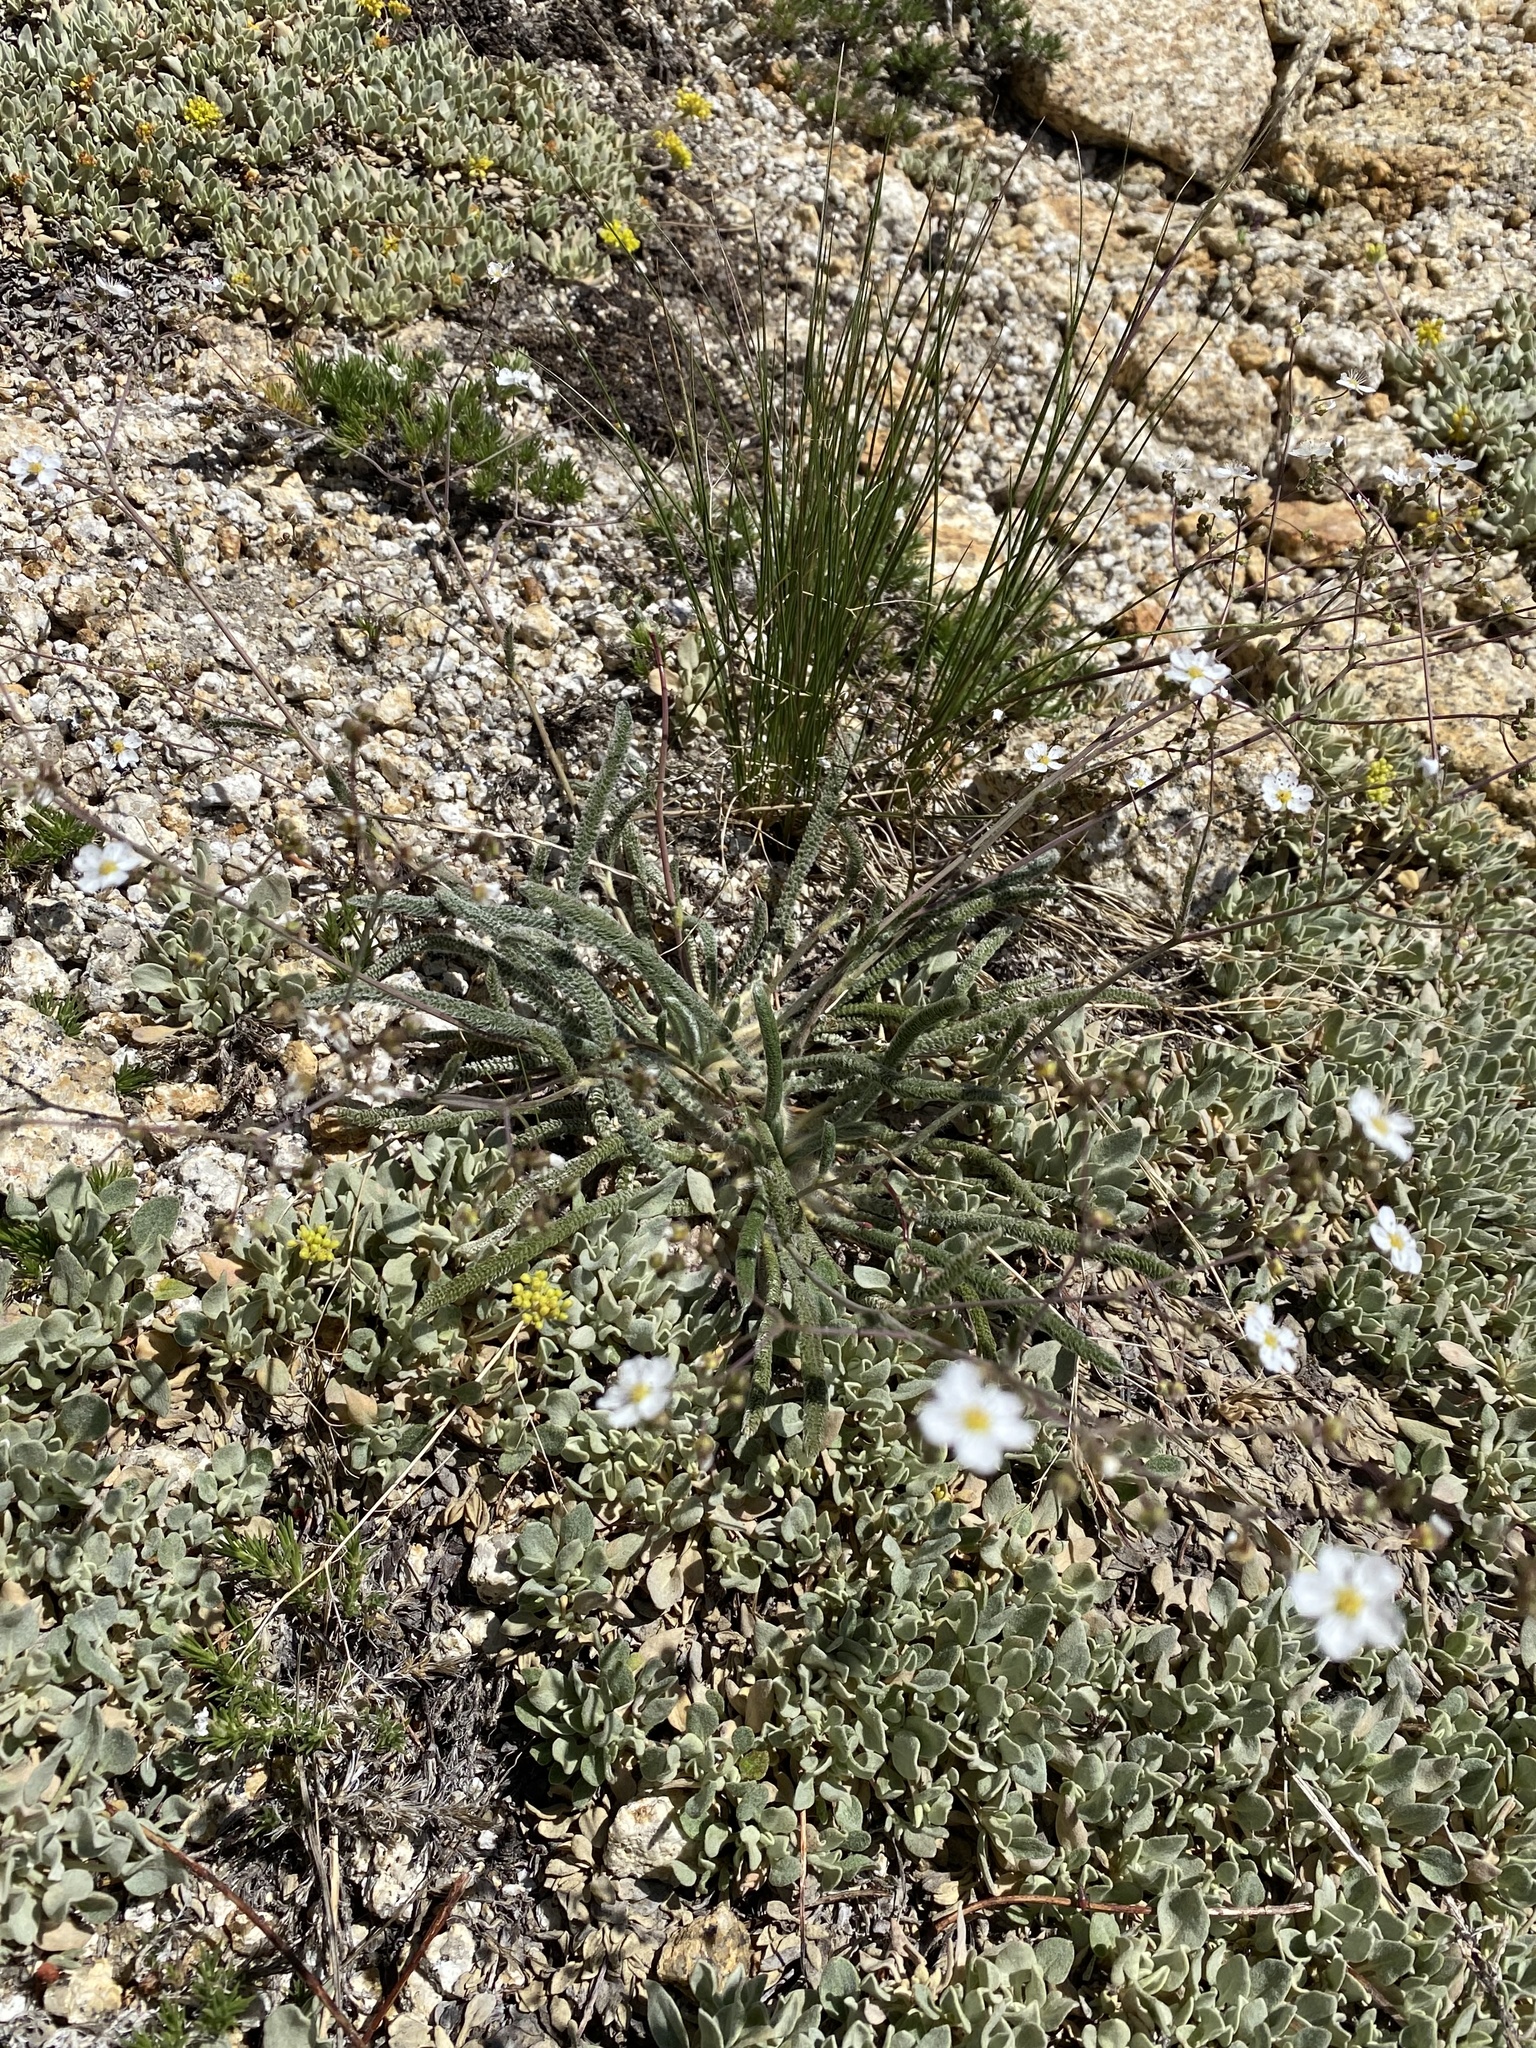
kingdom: Plantae
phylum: Tracheophyta
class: Magnoliopsida
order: Rosales
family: Rosaceae
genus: Potentilla
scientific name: Potentilla santolinoides
